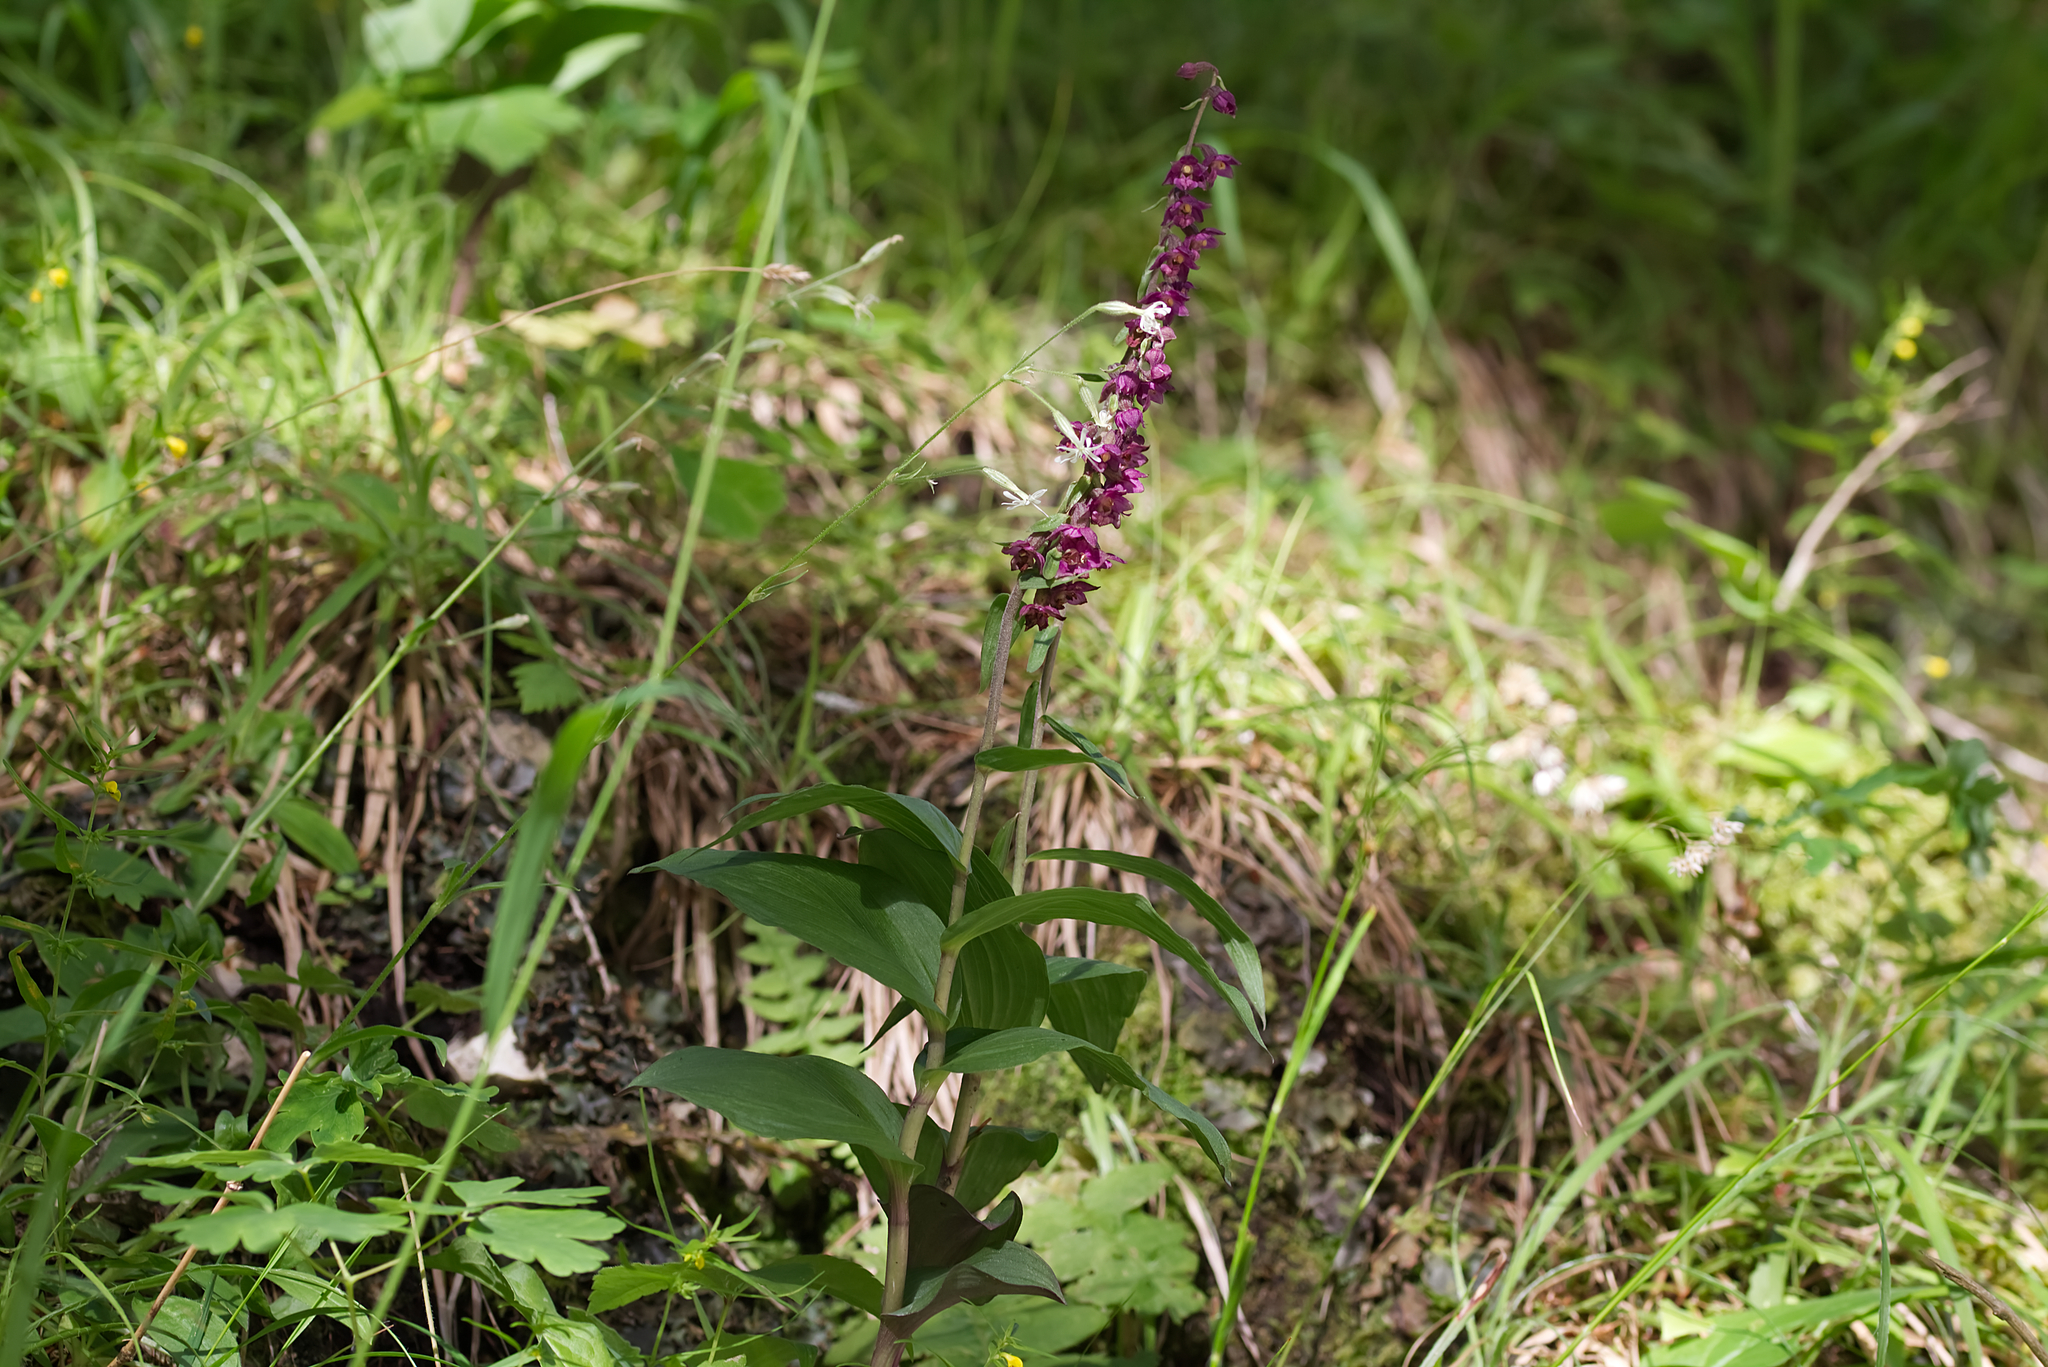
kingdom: Plantae
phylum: Tracheophyta
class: Liliopsida
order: Asparagales
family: Orchidaceae
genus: Epipactis
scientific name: Epipactis atrorubens
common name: Dark-red helleborine
